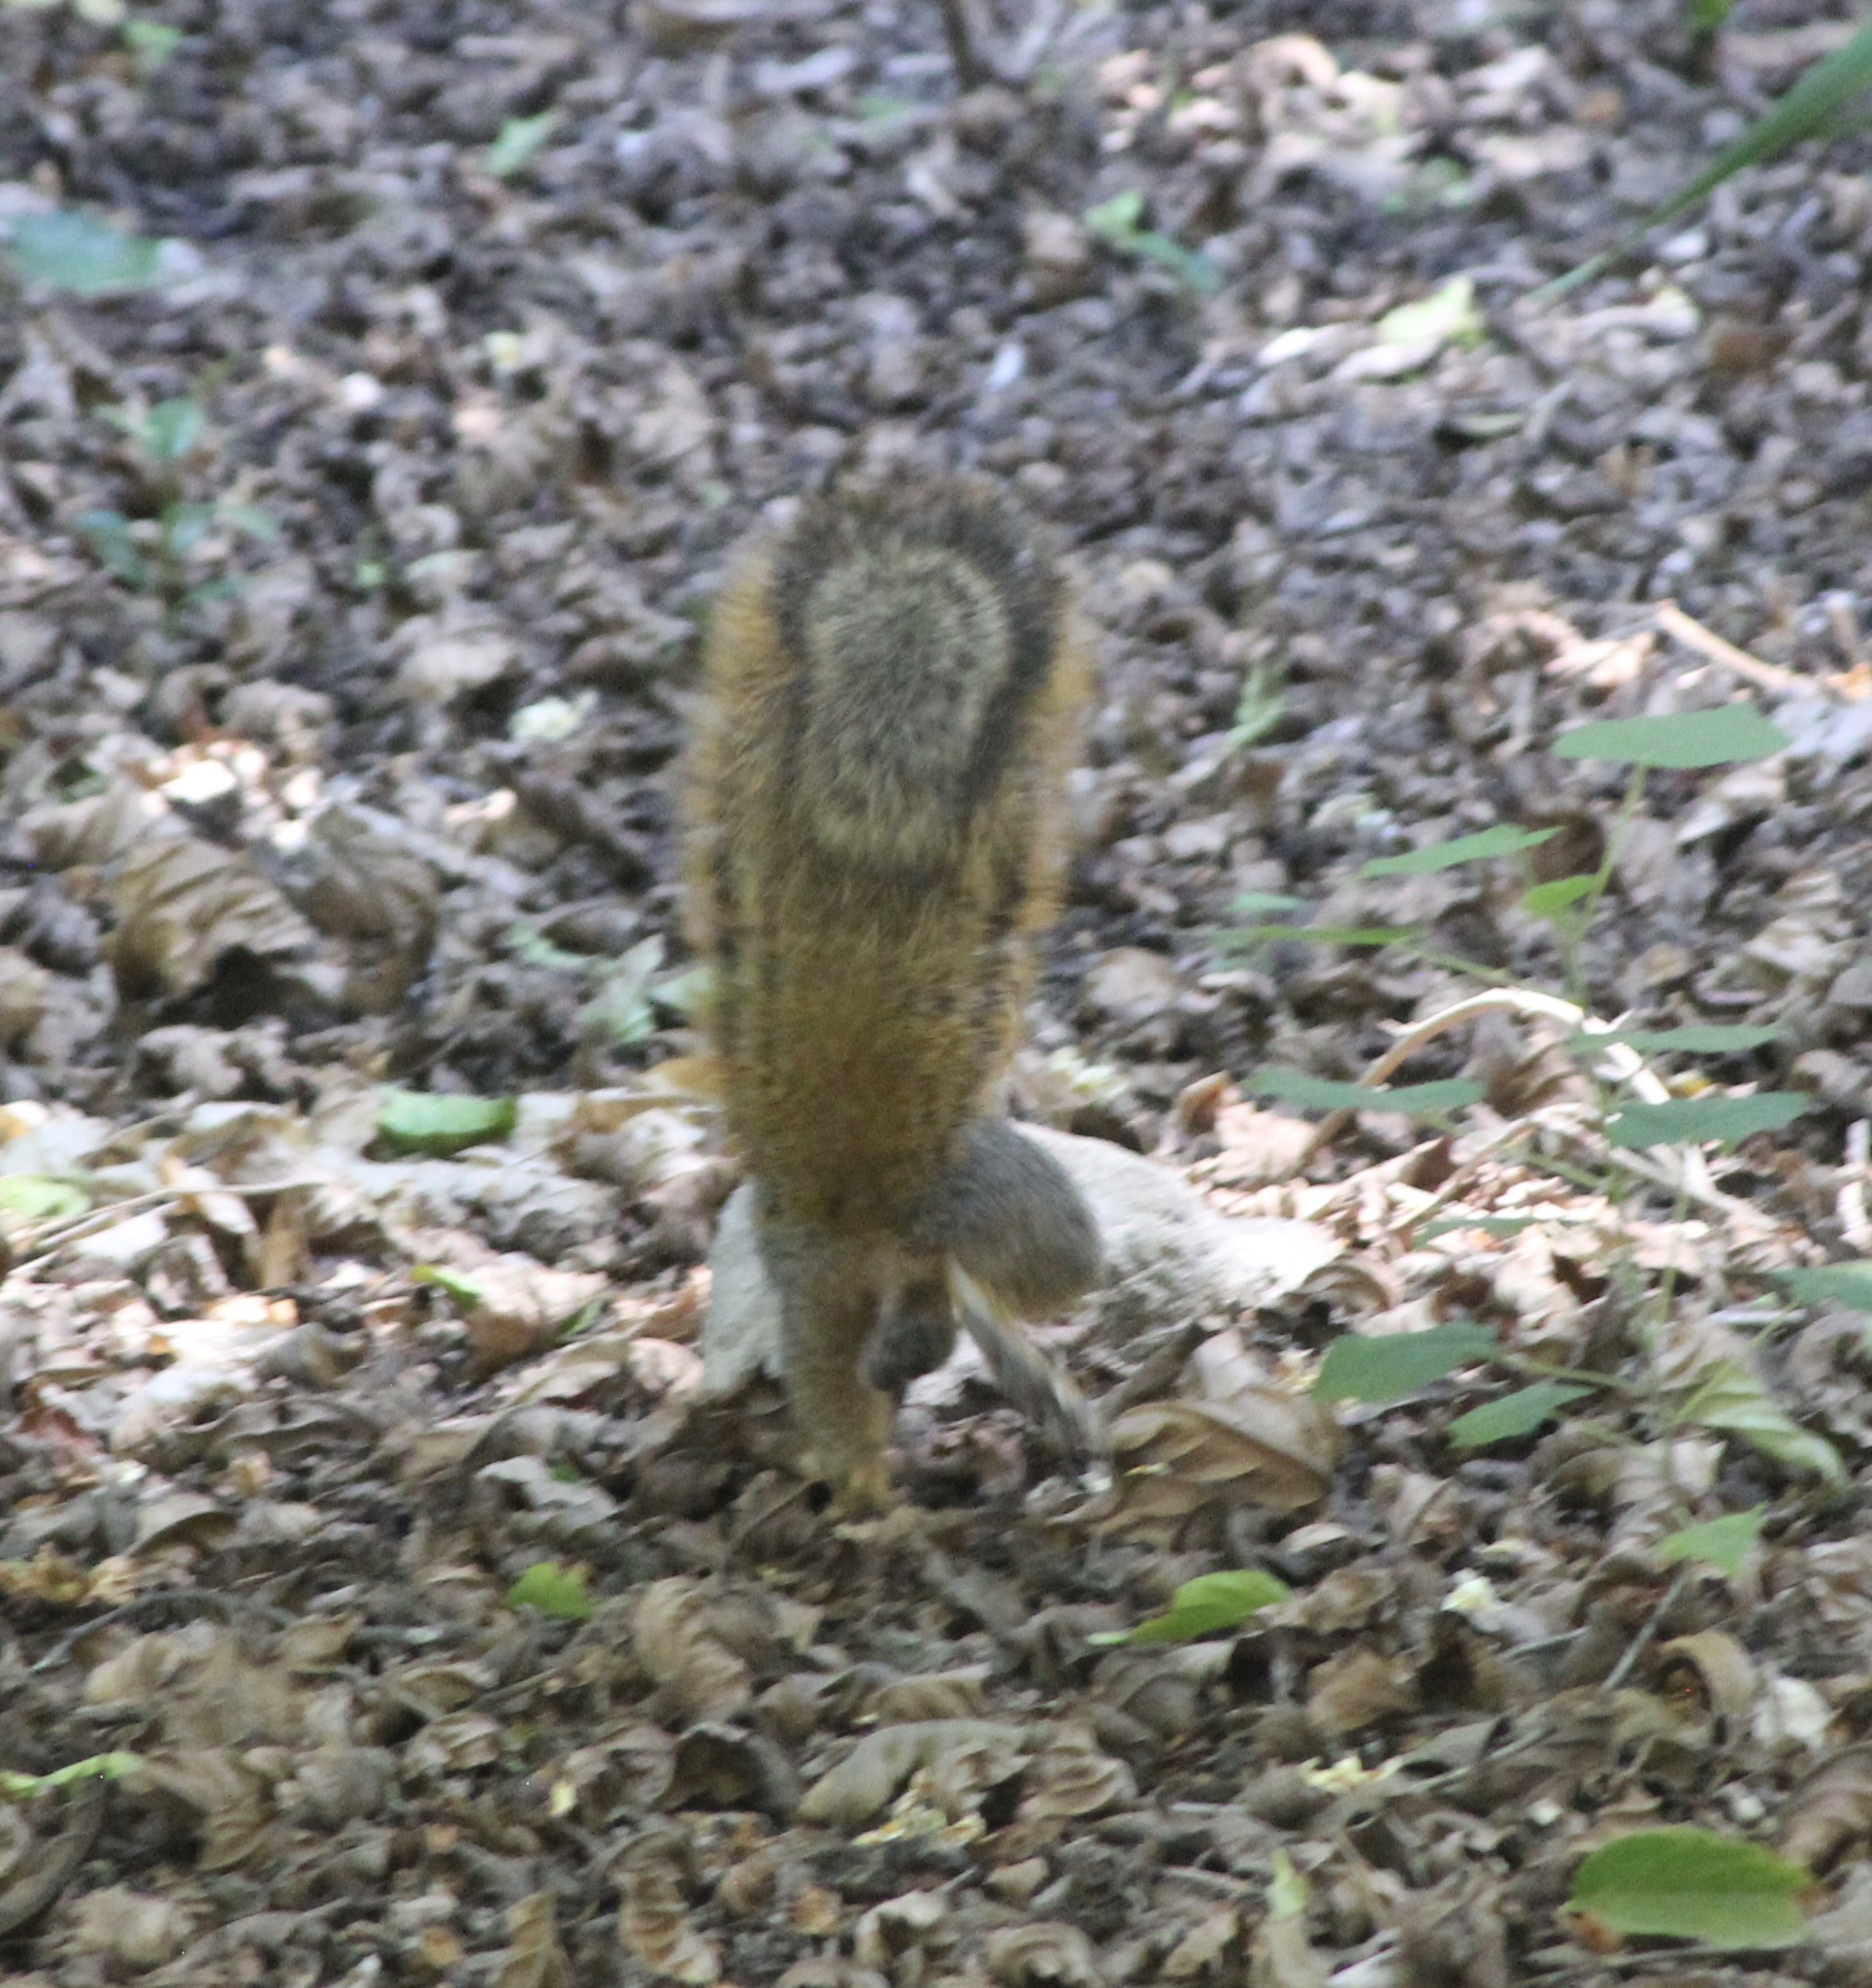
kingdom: Animalia
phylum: Chordata
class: Mammalia
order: Rodentia
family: Sciuridae
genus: Sciurus
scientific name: Sciurus niger
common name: Fox squirrel
